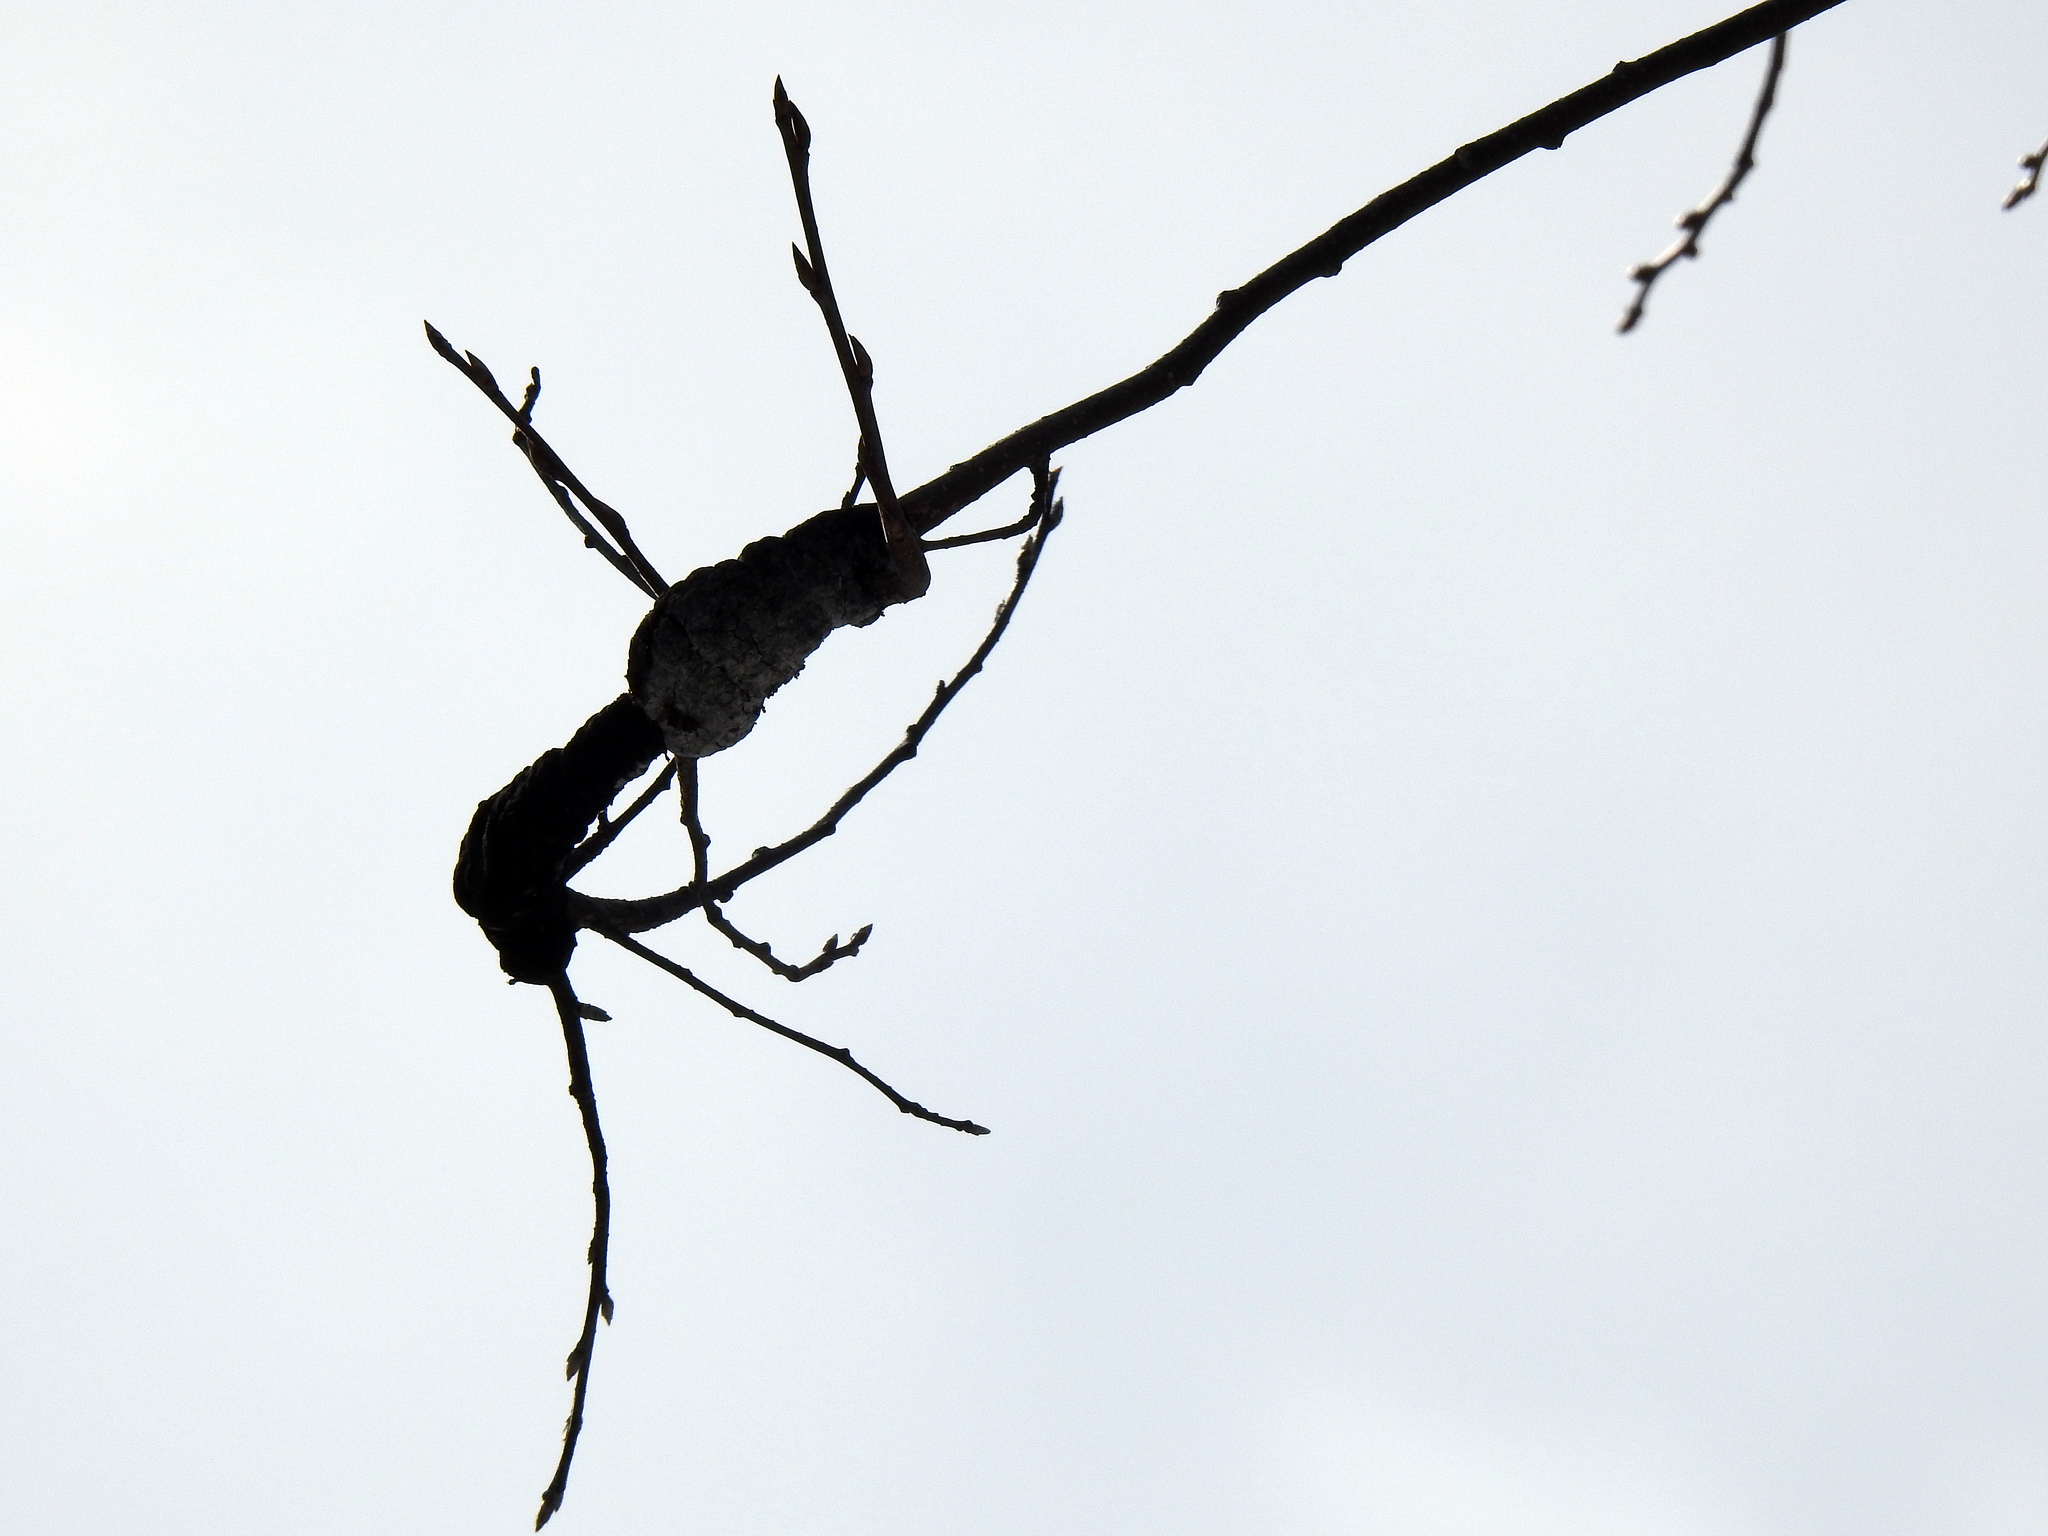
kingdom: Fungi
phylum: Ascomycota
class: Dothideomycetes
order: Venturiales
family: Venturiaceae
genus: Apiosporina
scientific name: Apiosporina morbosa
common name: Black knot
